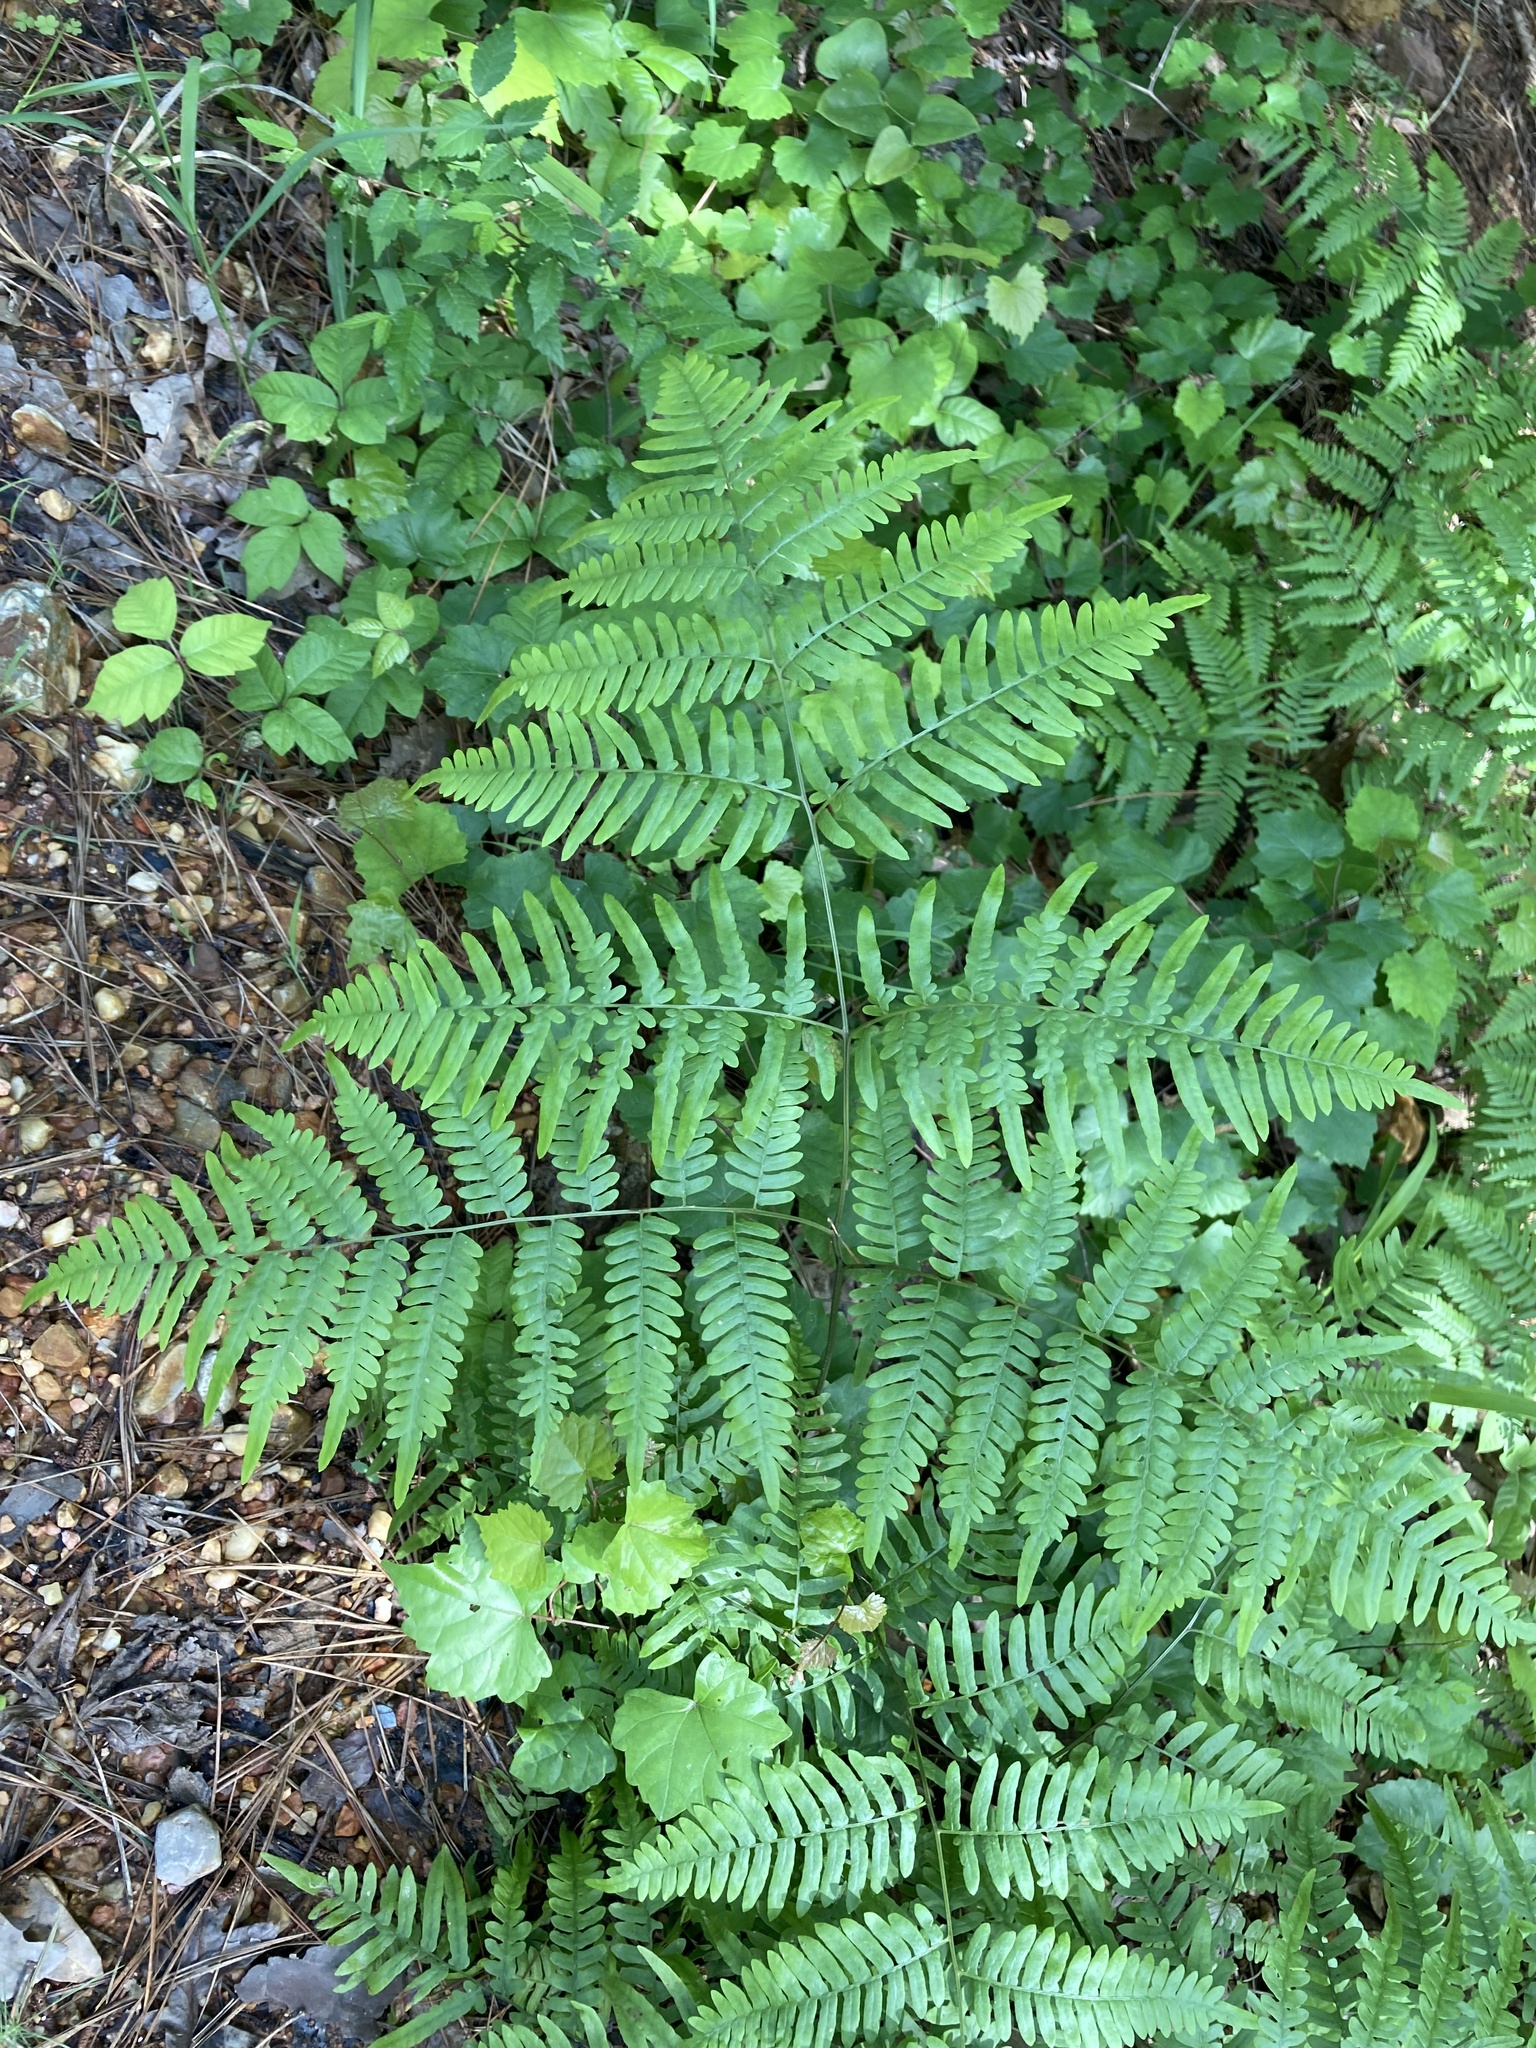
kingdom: Plantae
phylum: Tracheophyta
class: Polypodiopsida
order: Polypodiales
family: Dennstaedtiaceae
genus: Pteridium
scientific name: Pteridium aquilinum
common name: Bracken
